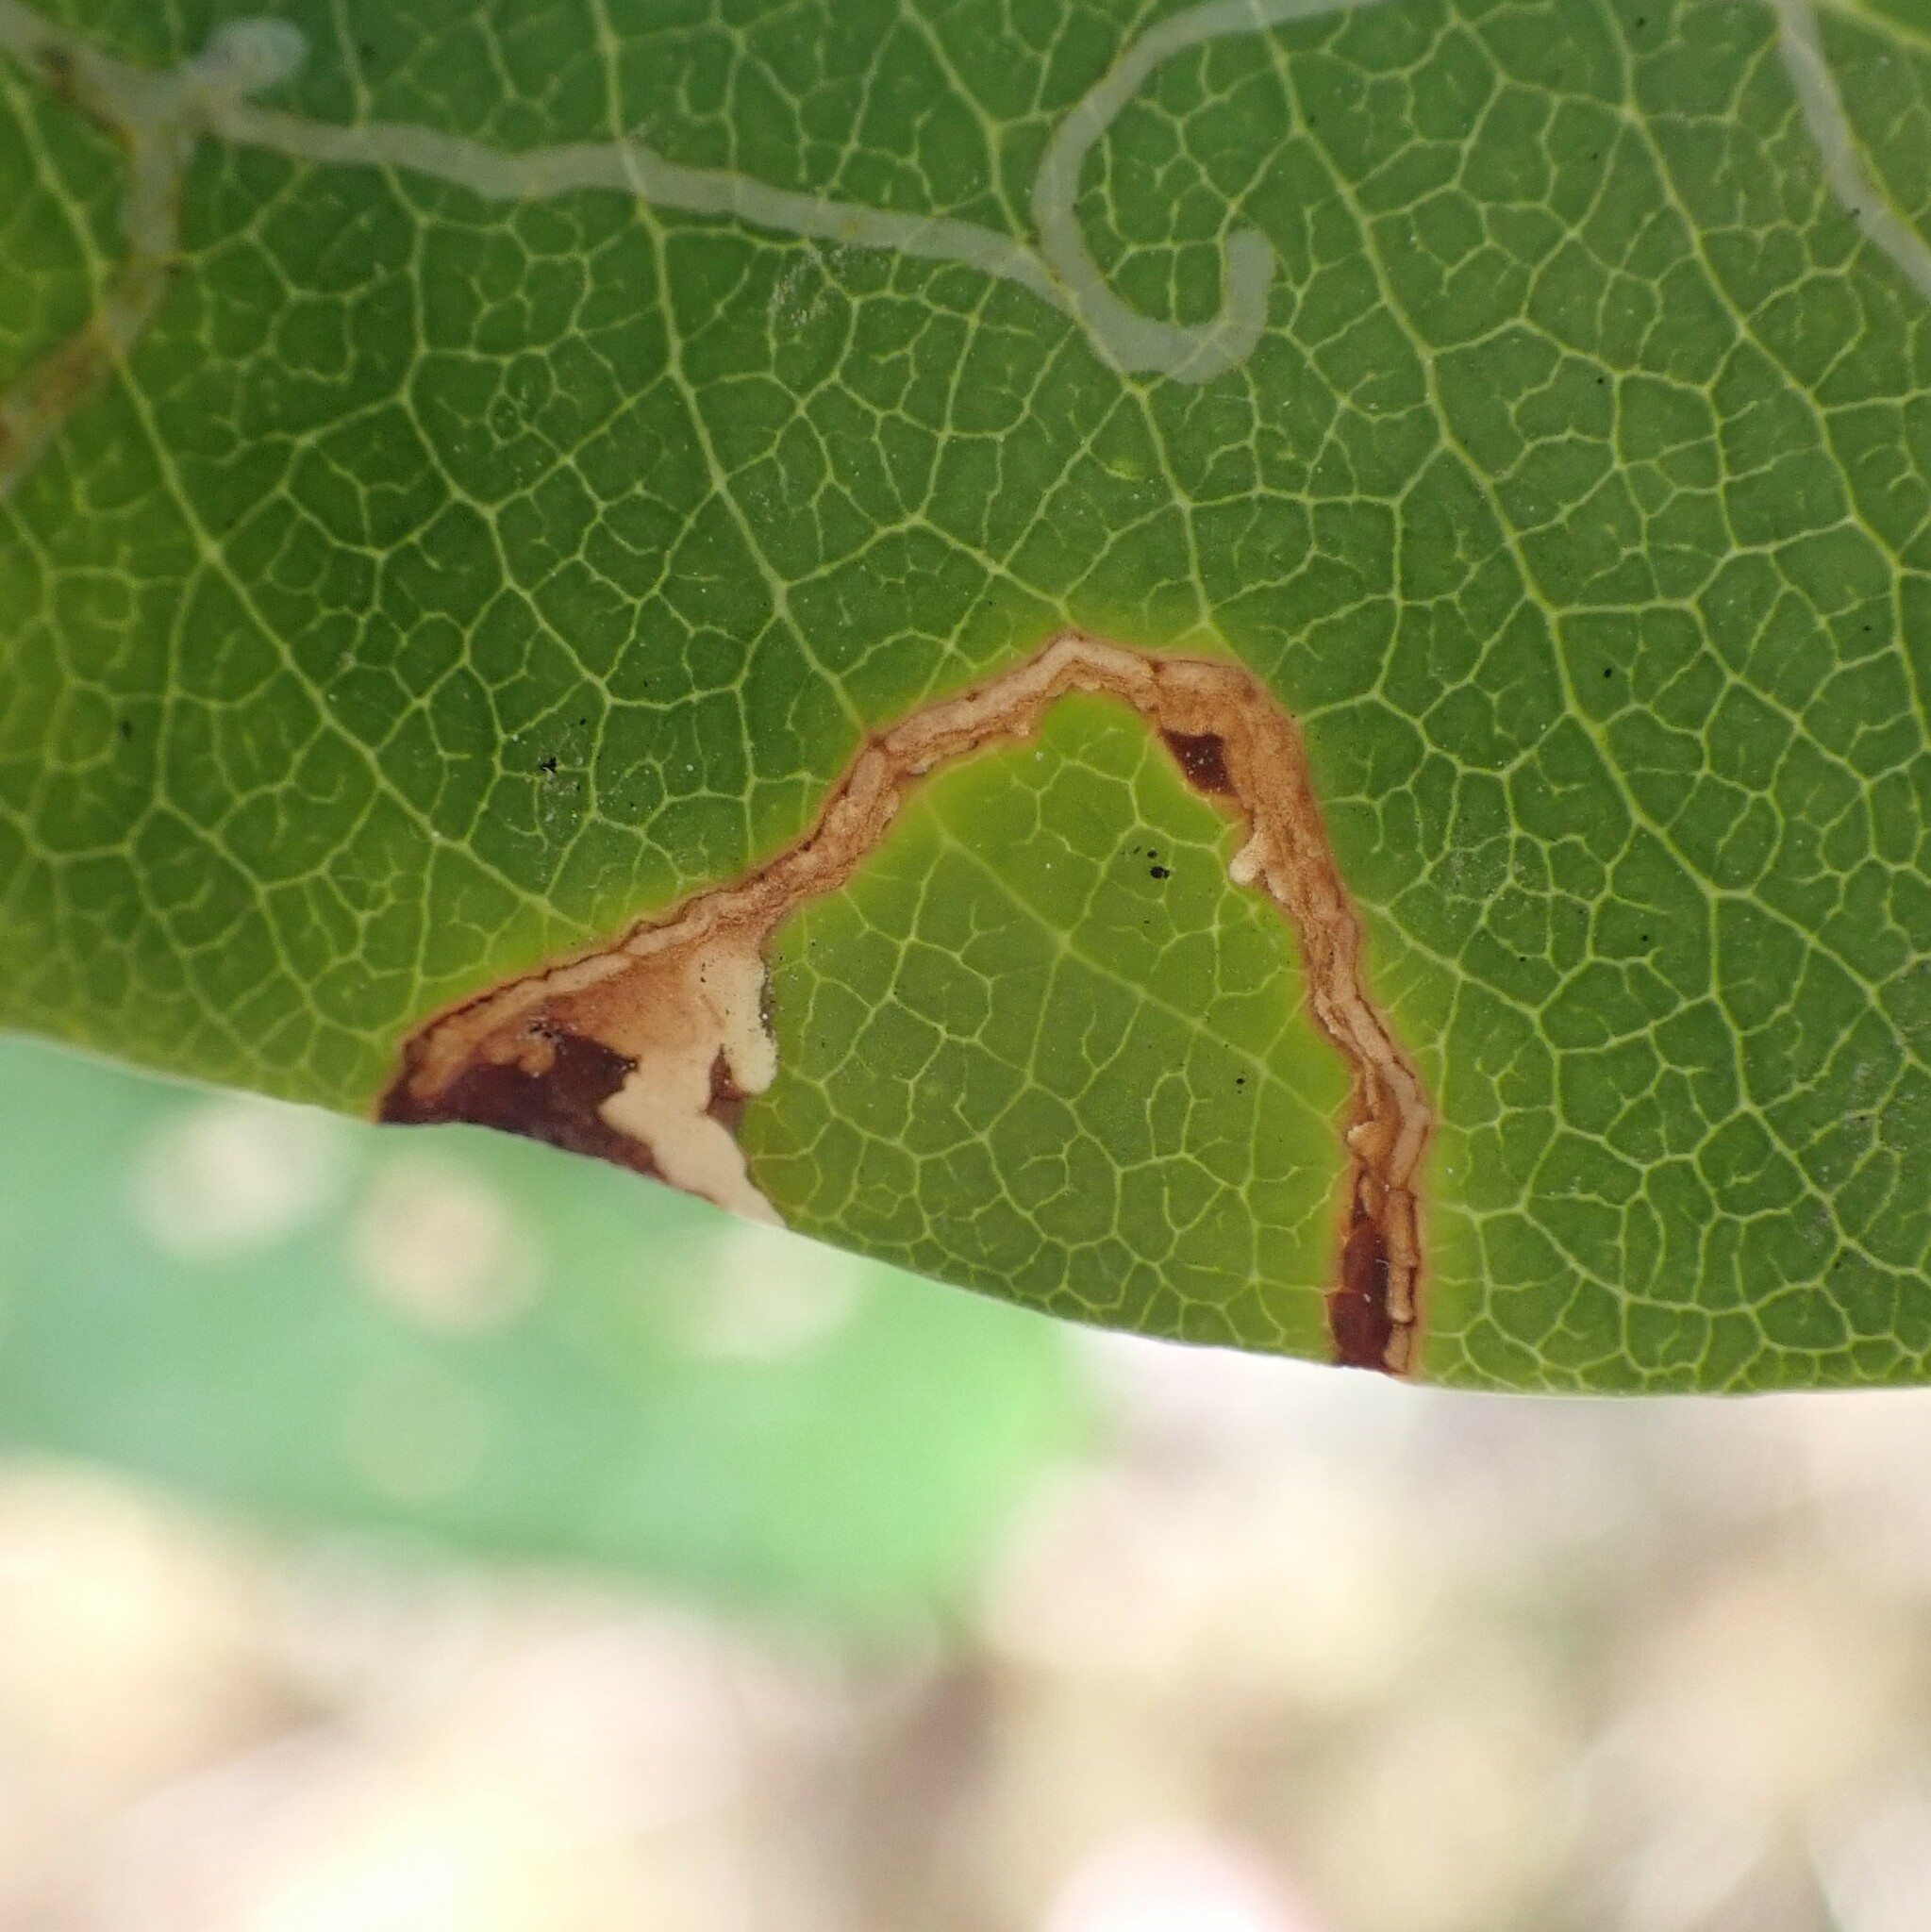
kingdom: Animalia
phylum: Arthropoda
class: Insecta
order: Lepidoptera
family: Tortricidae
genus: Epinotia
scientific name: Epinotia nigralbana
